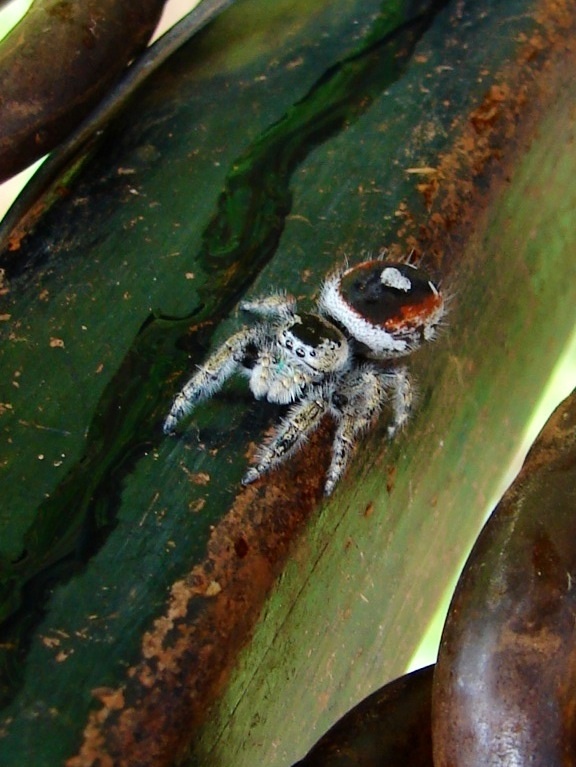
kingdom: Animalia
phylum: Arthropoda
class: Arachnida
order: Araneae
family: Salticidae
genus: Phidippus
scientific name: Phidippus californicus
